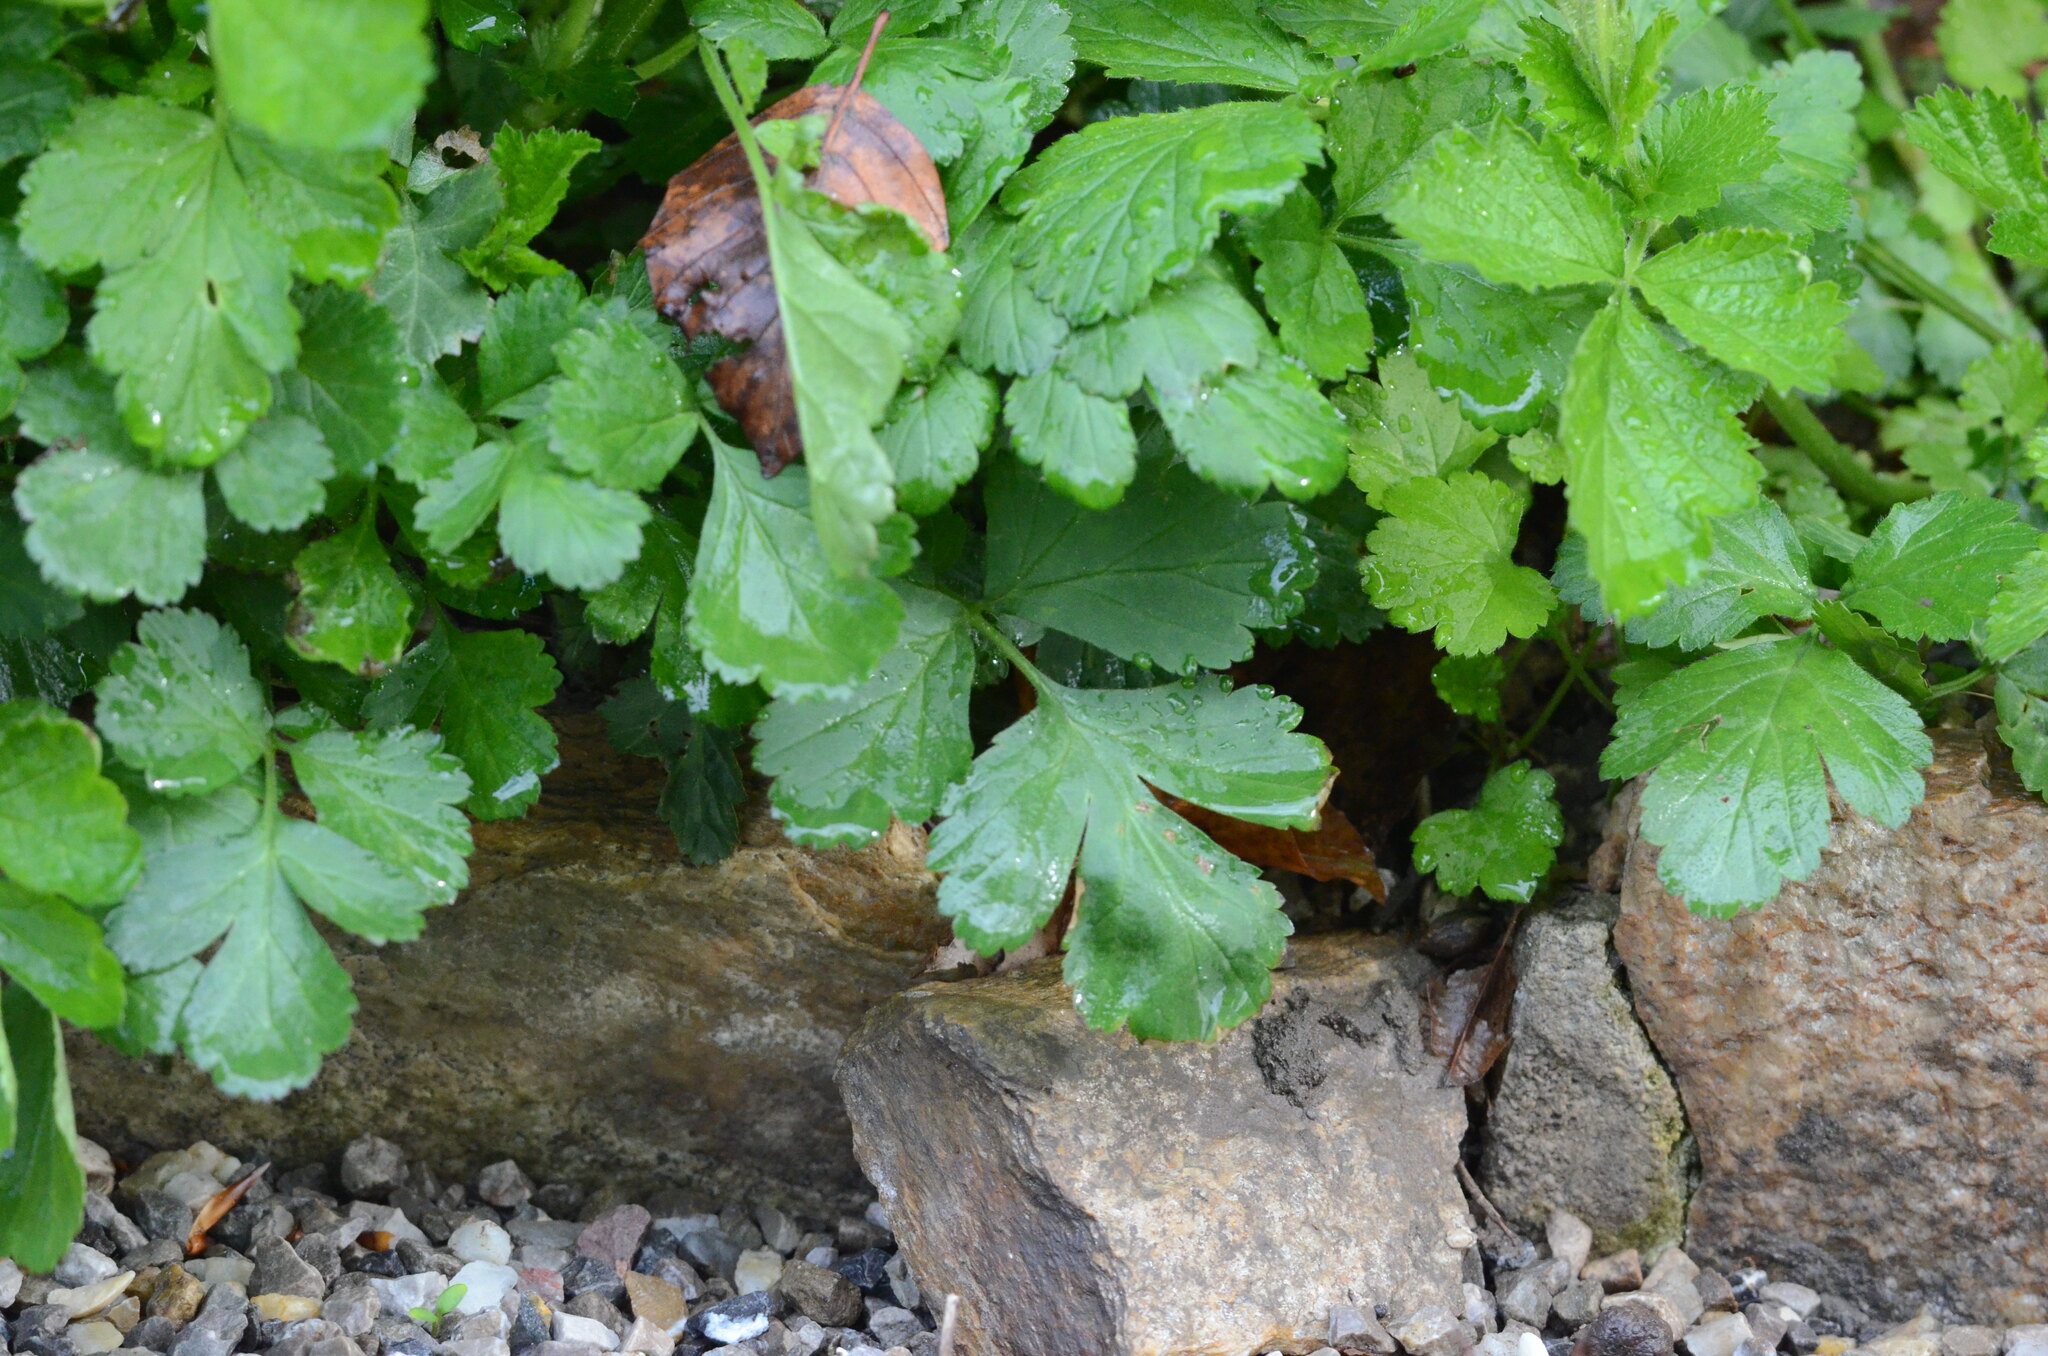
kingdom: Plantae
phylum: Tracheophyta
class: Magnoliopsida
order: Rosales
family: Rosaceae
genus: Geum
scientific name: Geum urbanum
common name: Wood avens
